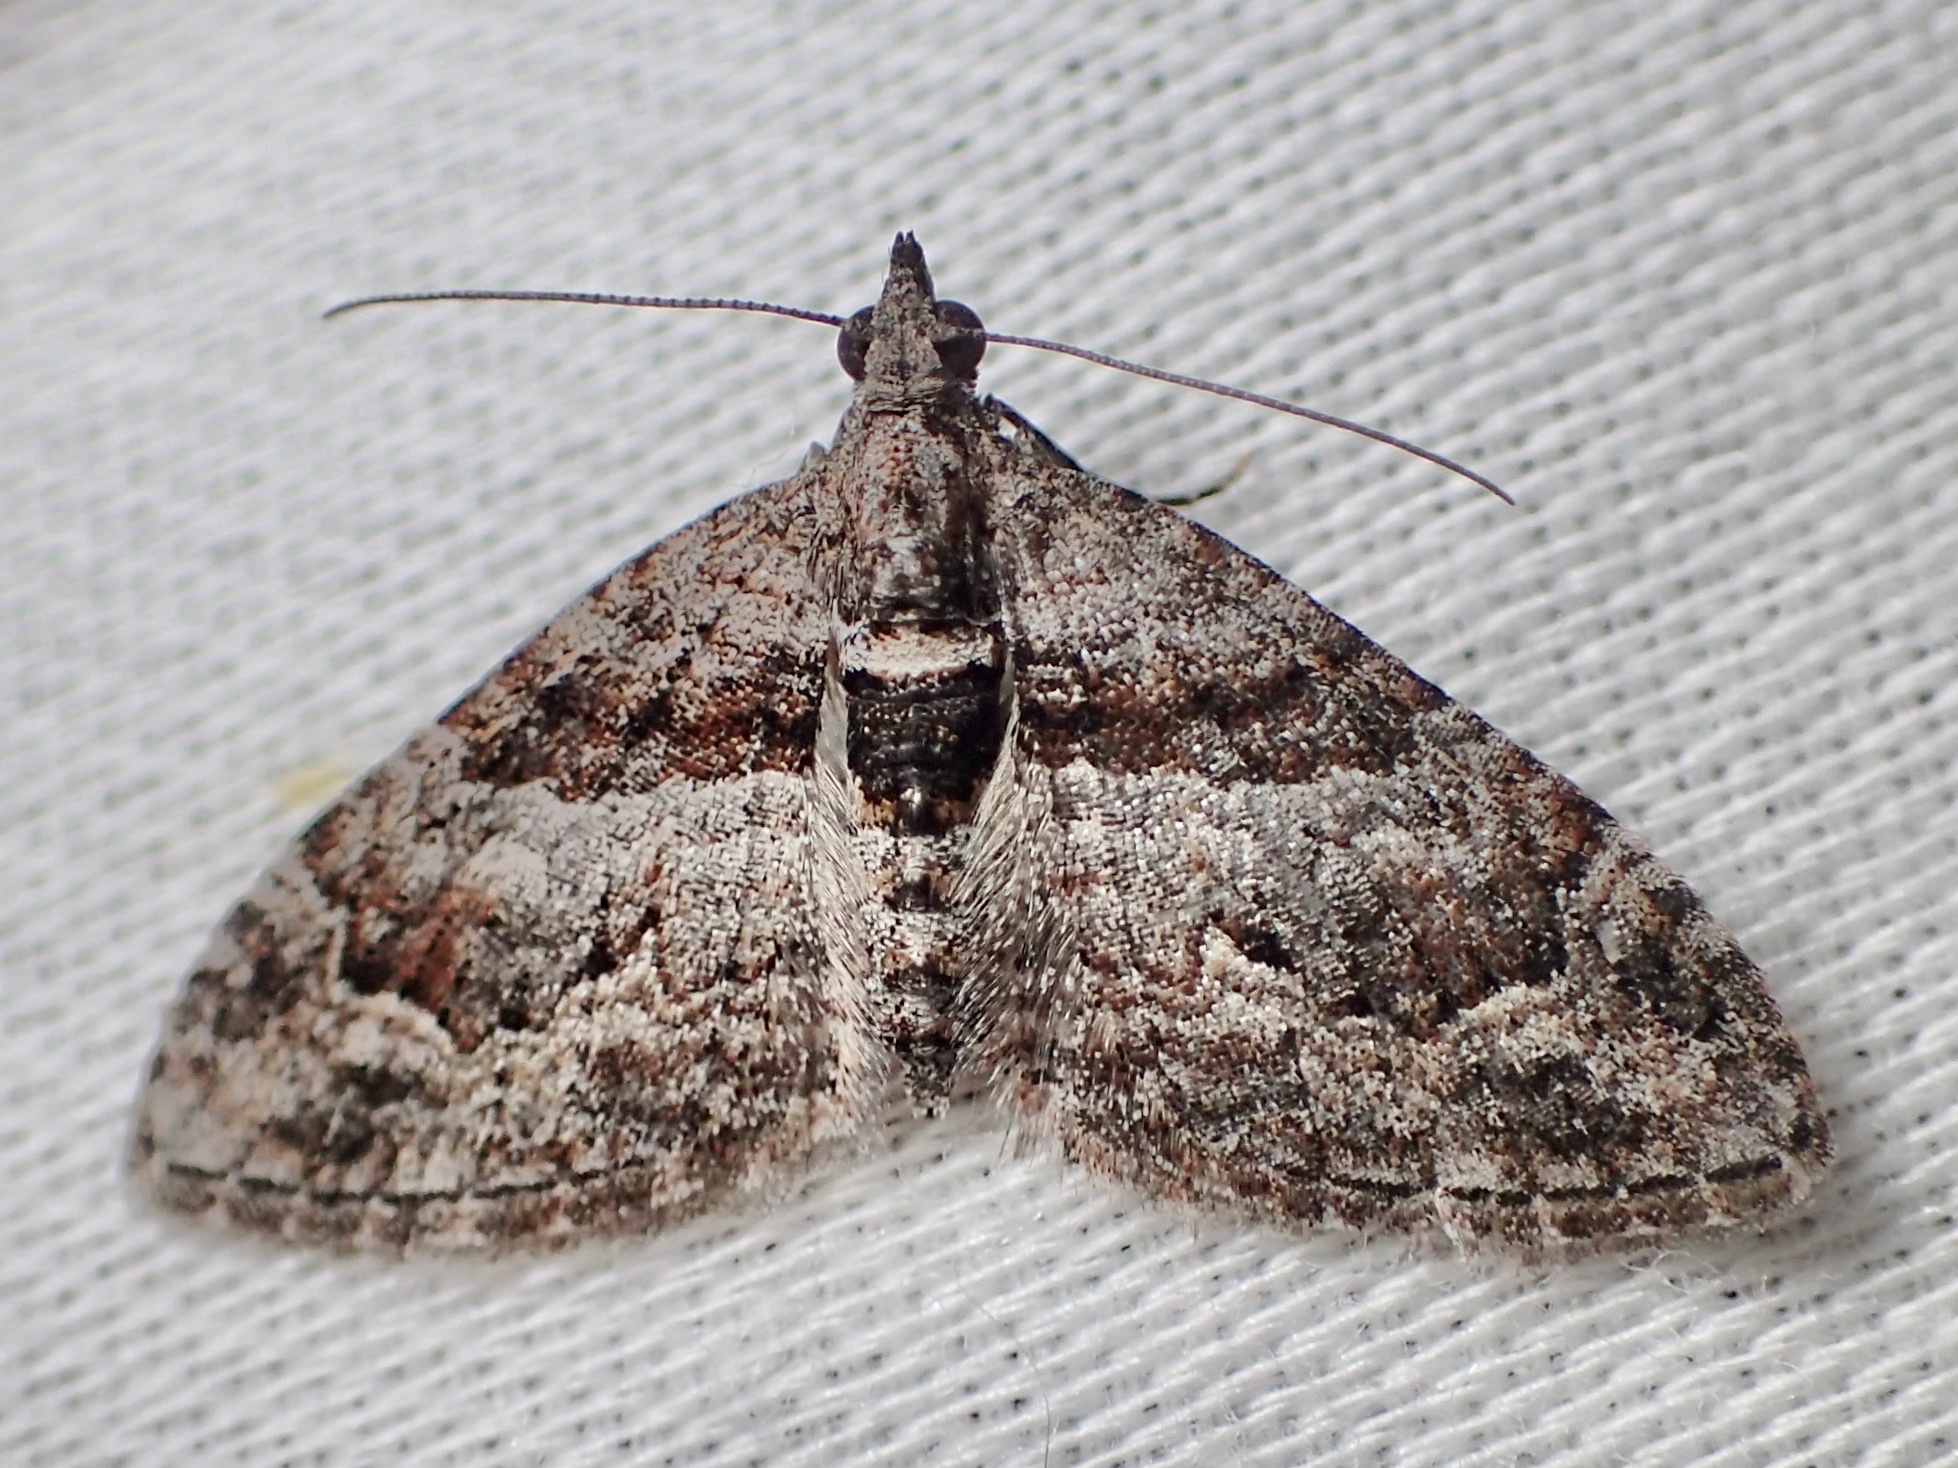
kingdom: Animalia
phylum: Arthropoda
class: Insecta
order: Lepidoptera
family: Geometridae
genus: Phrissogonus
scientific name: Phrissogonus laticostata
